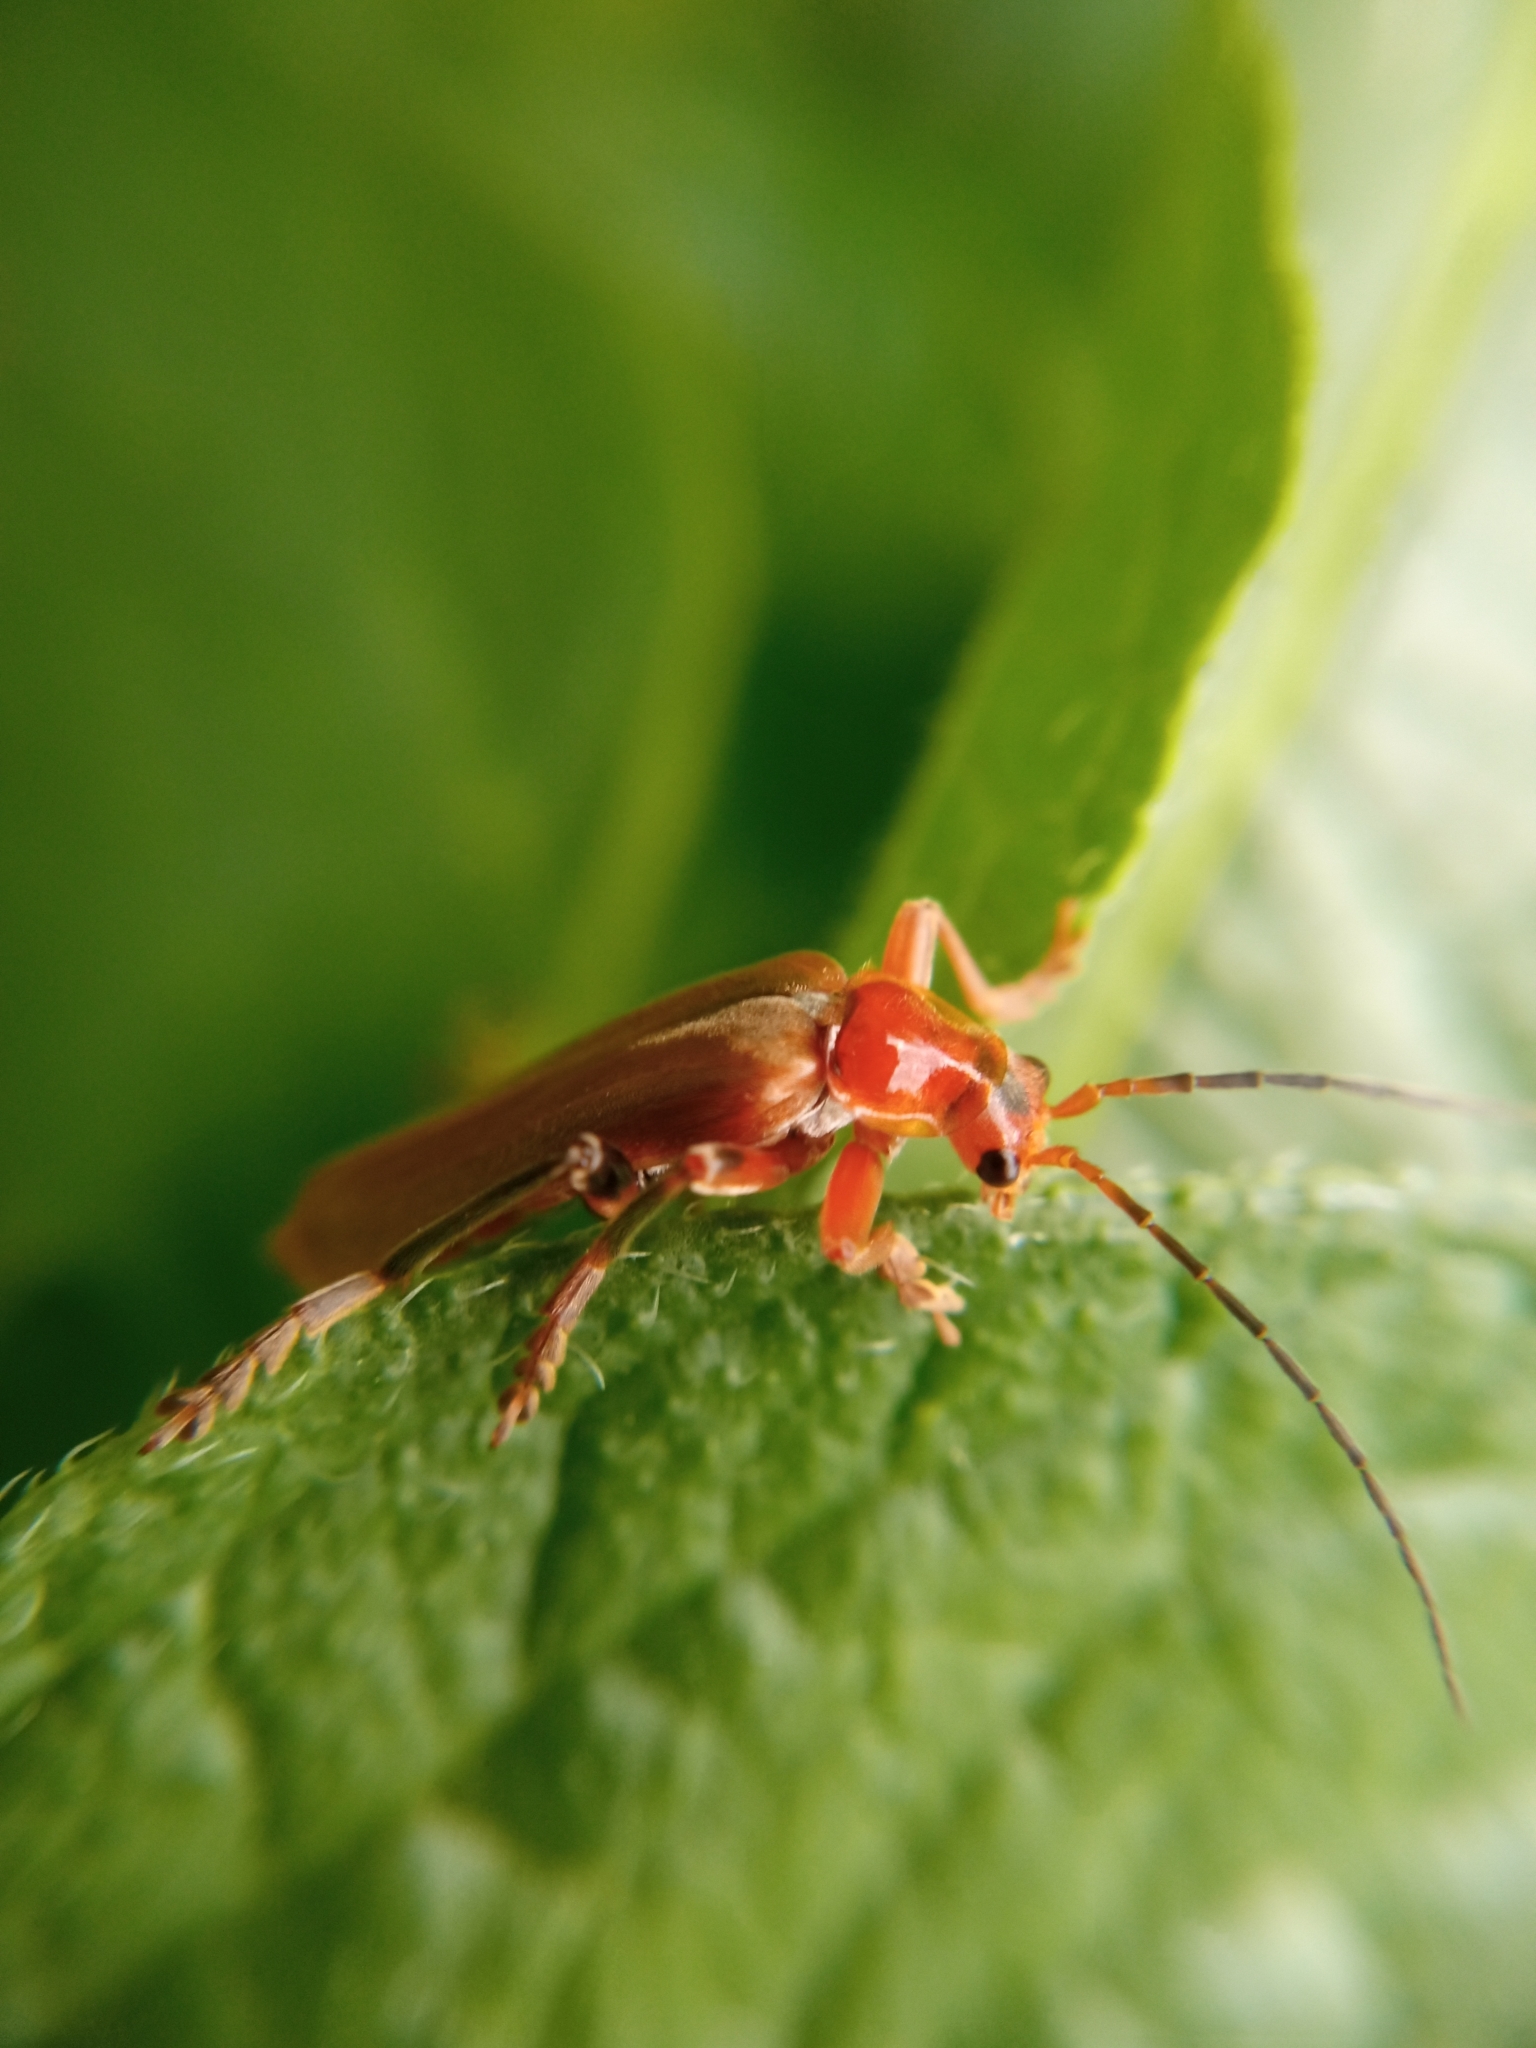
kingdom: Animalia
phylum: Arthropoda
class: Insecta
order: Coleoptera
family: Cantharidae
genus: Cantharis
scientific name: Cantharis livida
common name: Livid soldier beetle
